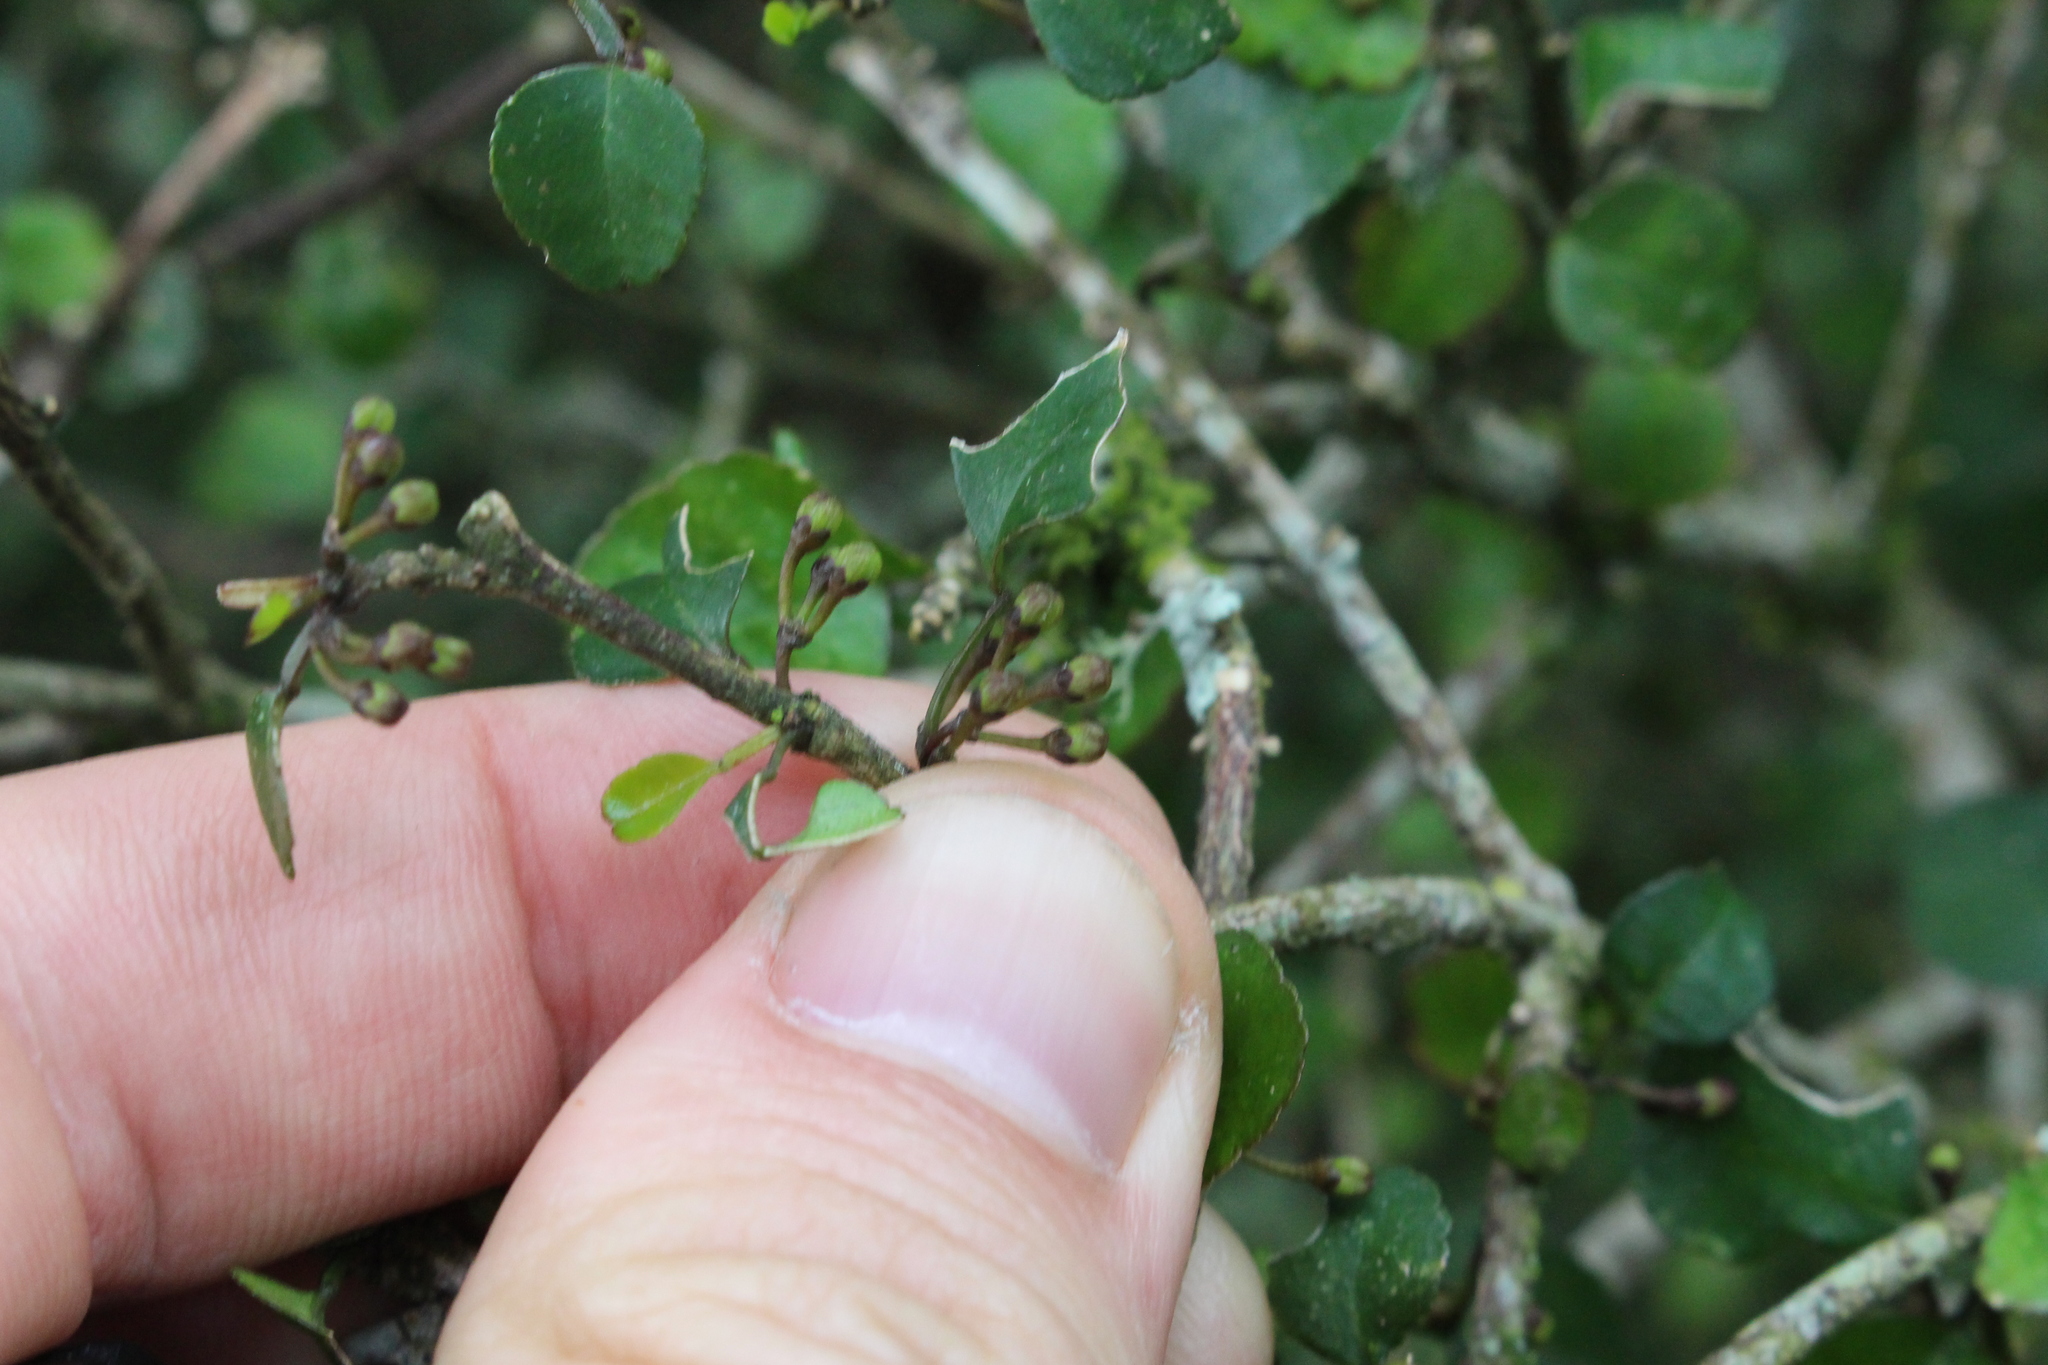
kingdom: Plantae
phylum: Tracheophyta
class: Magnoliopsida
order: Sapindales
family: Rutaceae
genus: Melicope
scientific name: Melicope simplex
